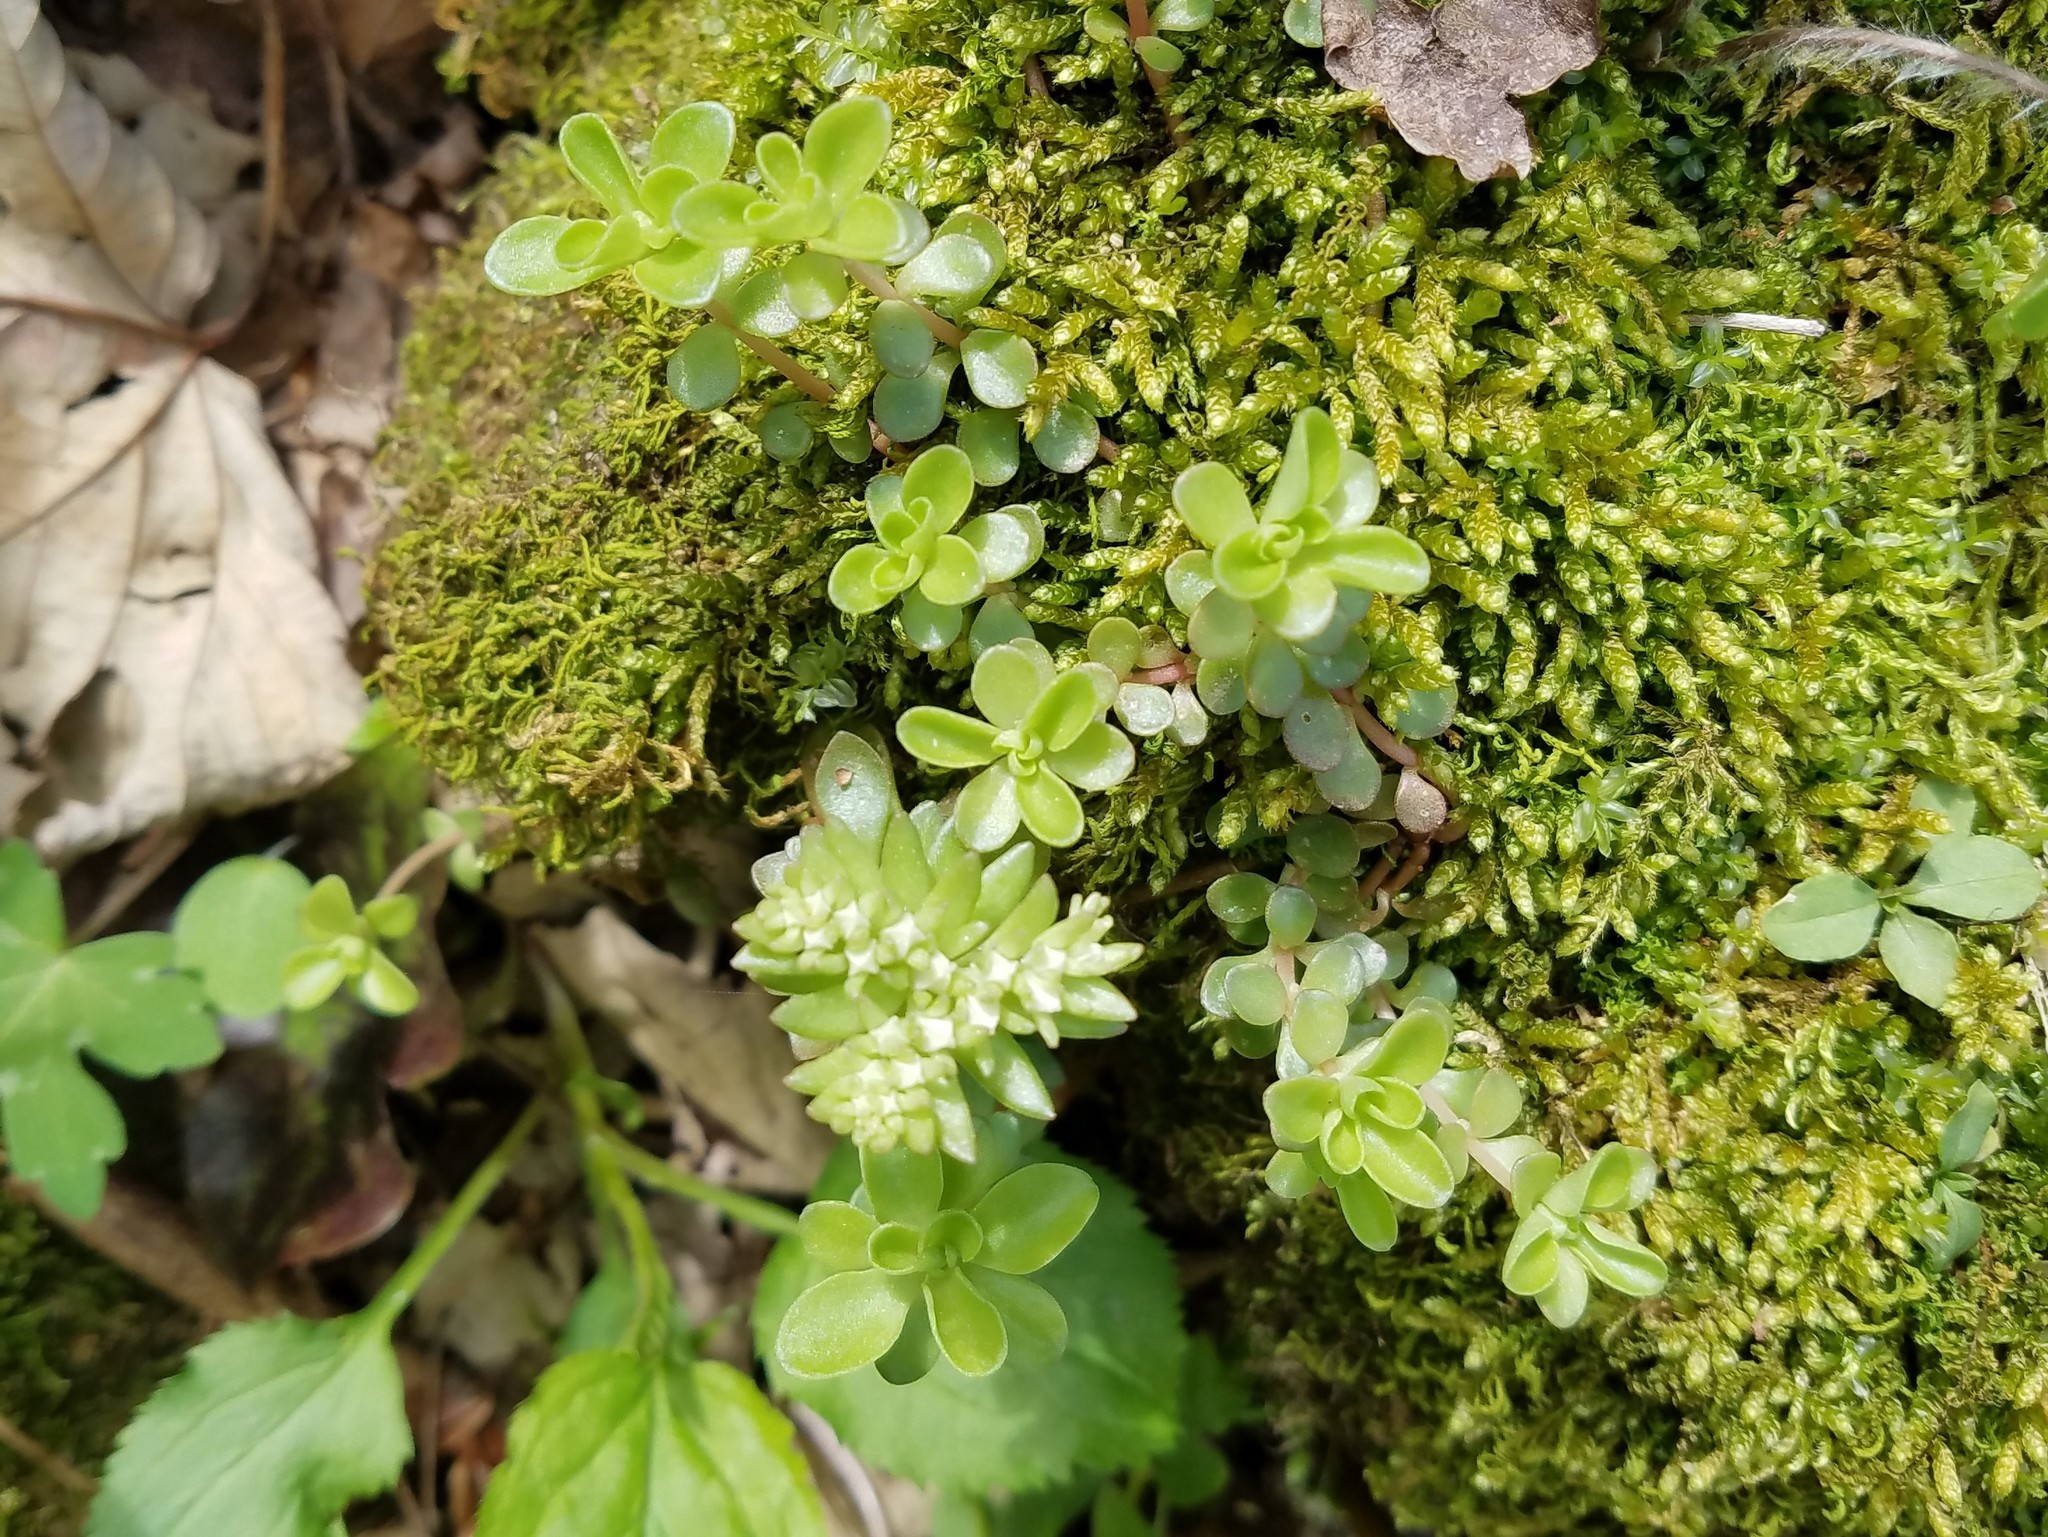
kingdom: Plantae
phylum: Tracheophyta
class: Magnoliopsida
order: Saxifragales
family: Crassulaceae
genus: Sedum
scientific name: Sedum ternatum
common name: Wild stonecrop
